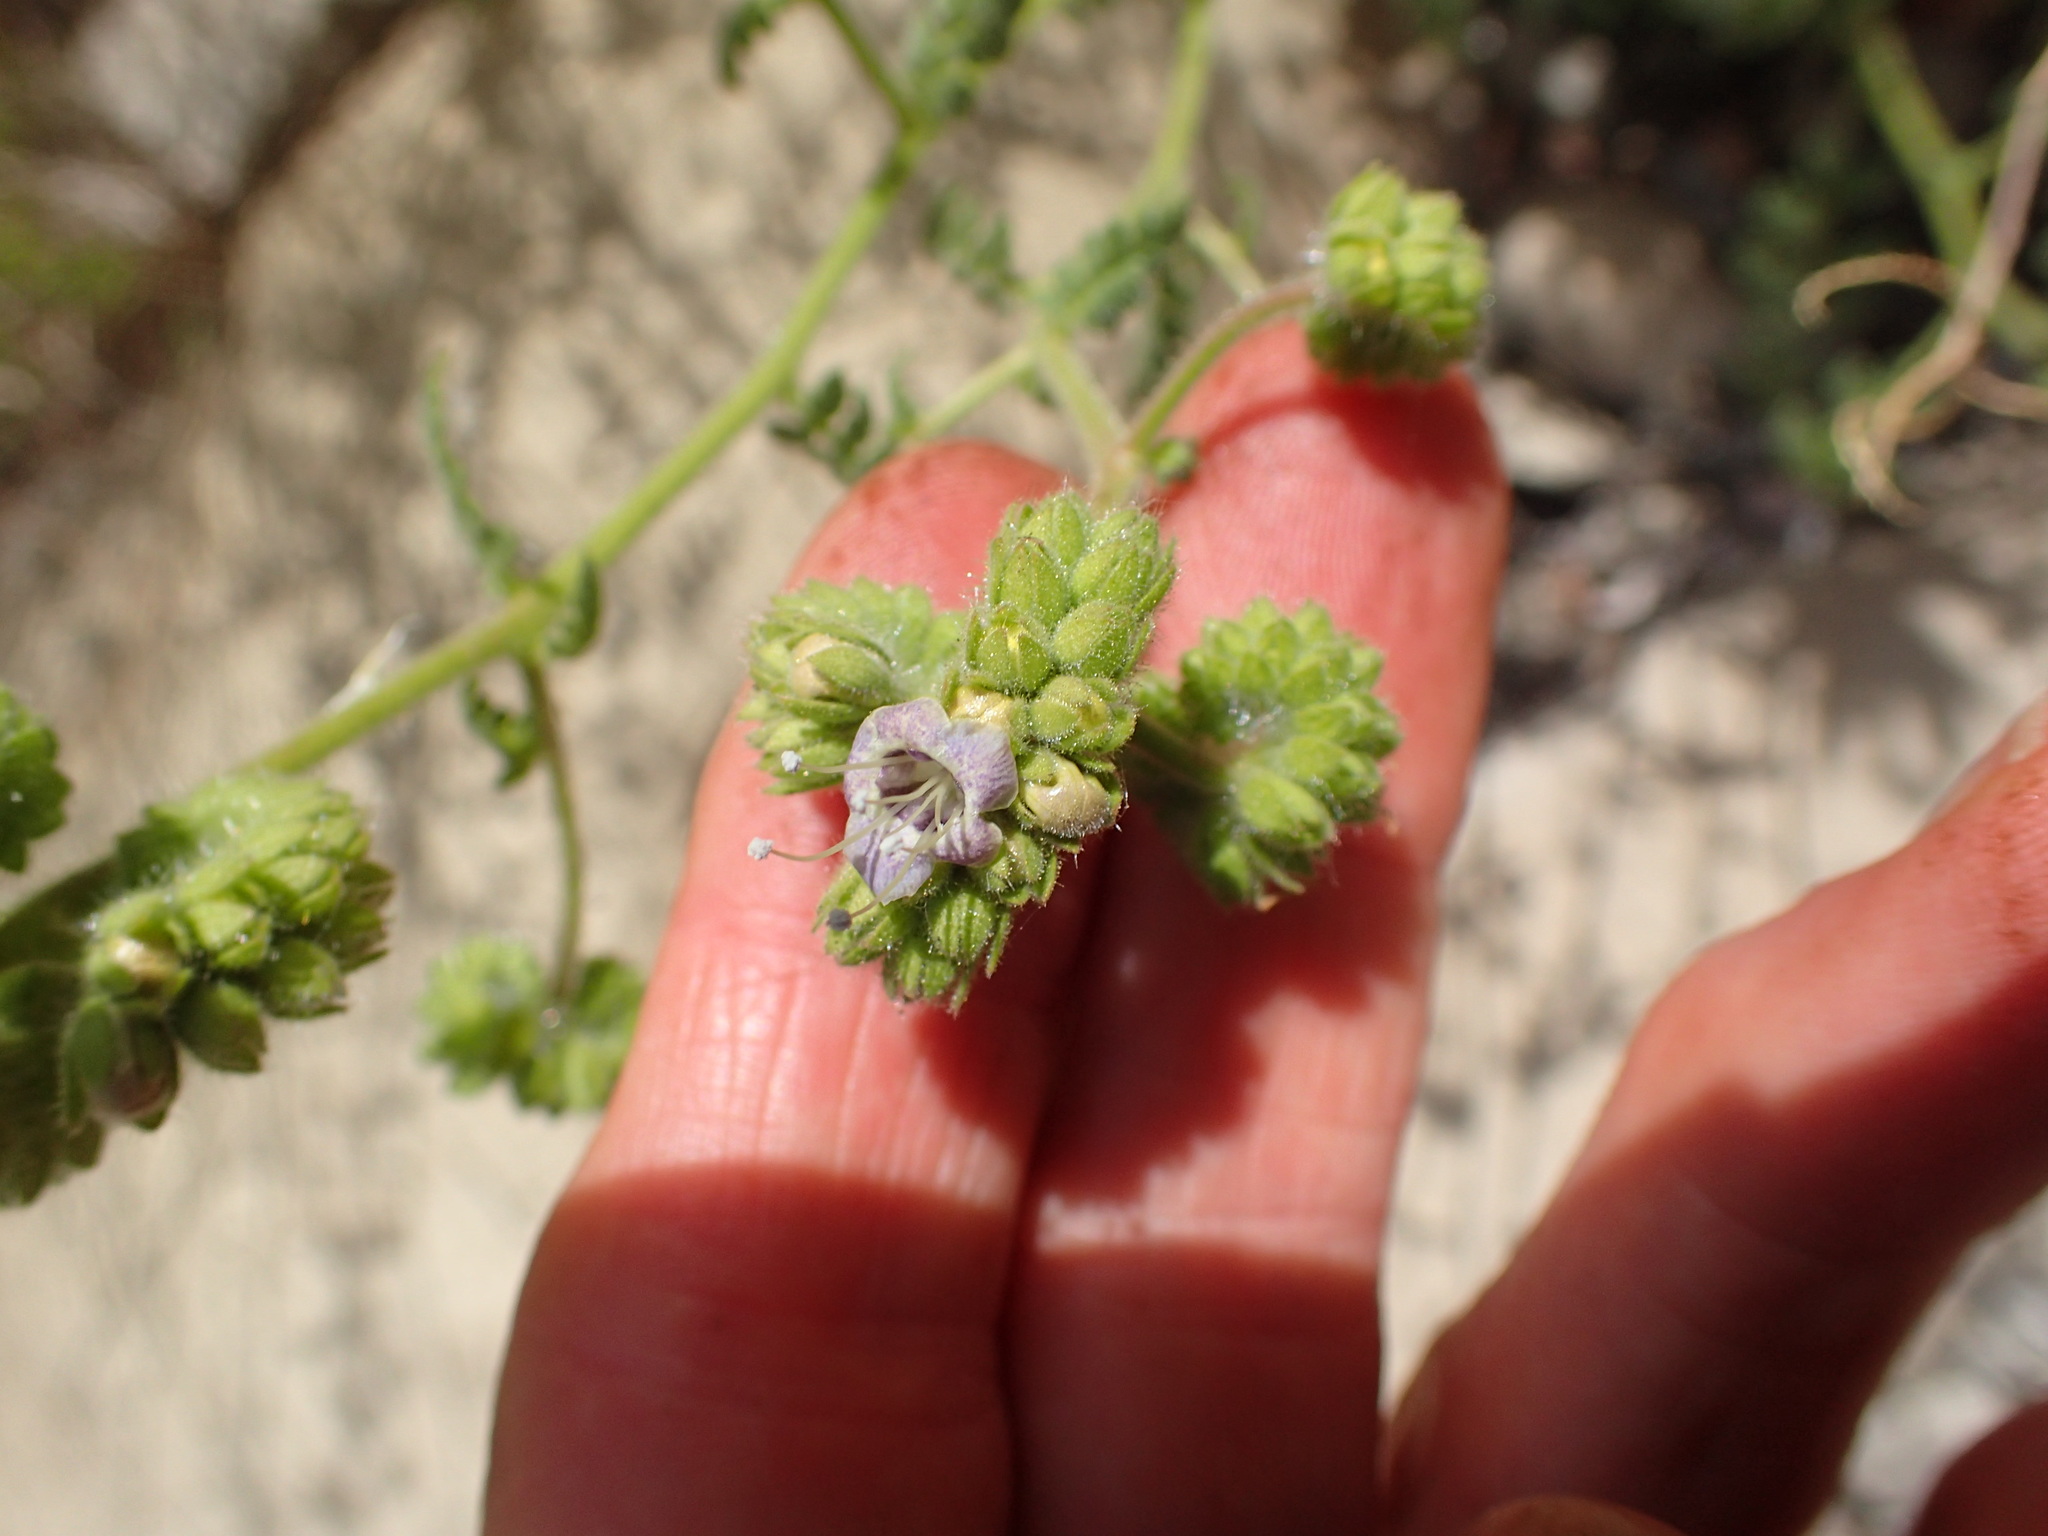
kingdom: Plantae
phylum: Tracheophyta
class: Magnoliopsida
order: Boraginales
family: Hydrophyllaceae
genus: Phacelia
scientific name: Phacelia ramosissima
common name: Branching phacelia
